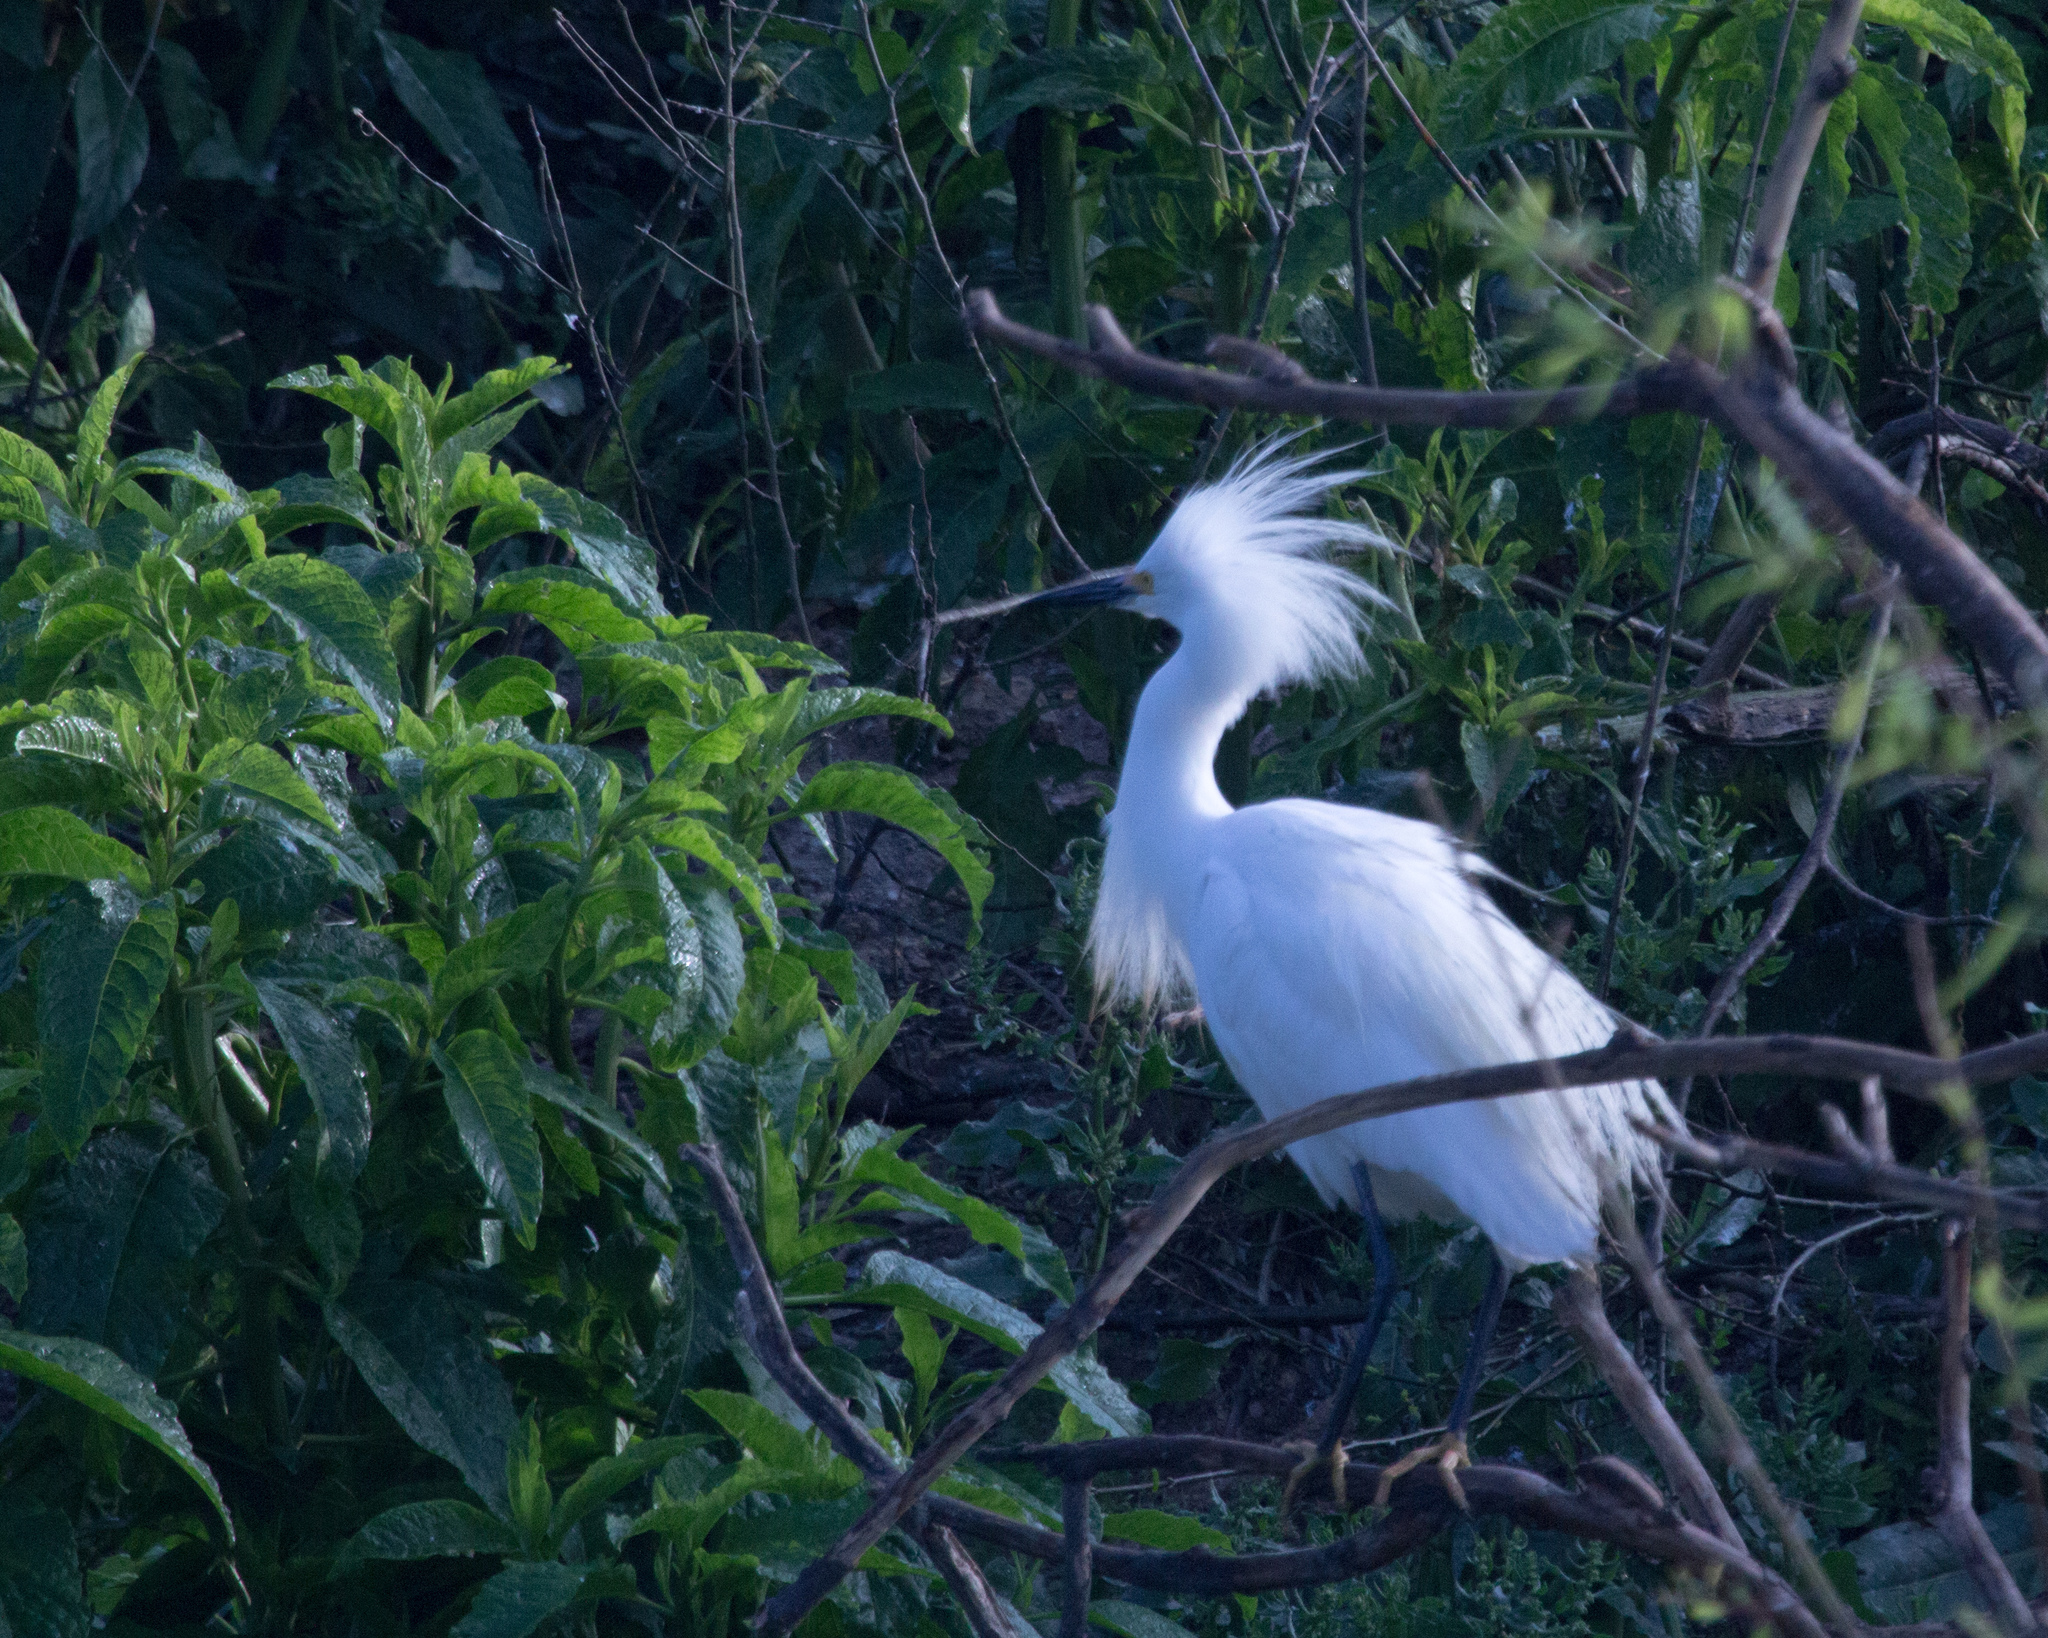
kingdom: Animalia
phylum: Chordata
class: Aves
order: Pelecaniformes
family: Ardeidae
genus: Egretta
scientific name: Egretta thula
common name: Snowy egret
